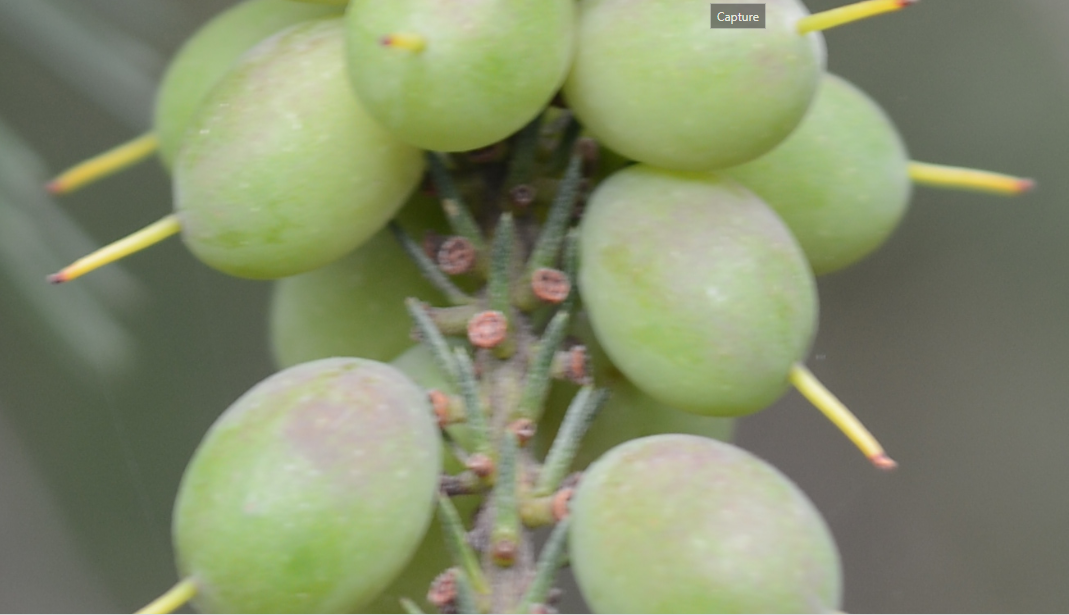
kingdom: Plantae
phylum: Tracheophyta
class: Magnoliopsida
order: Proteales
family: Proteaceae
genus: Persoonia
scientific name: Persoonia pinifolia
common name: Pine-leaf geebung
